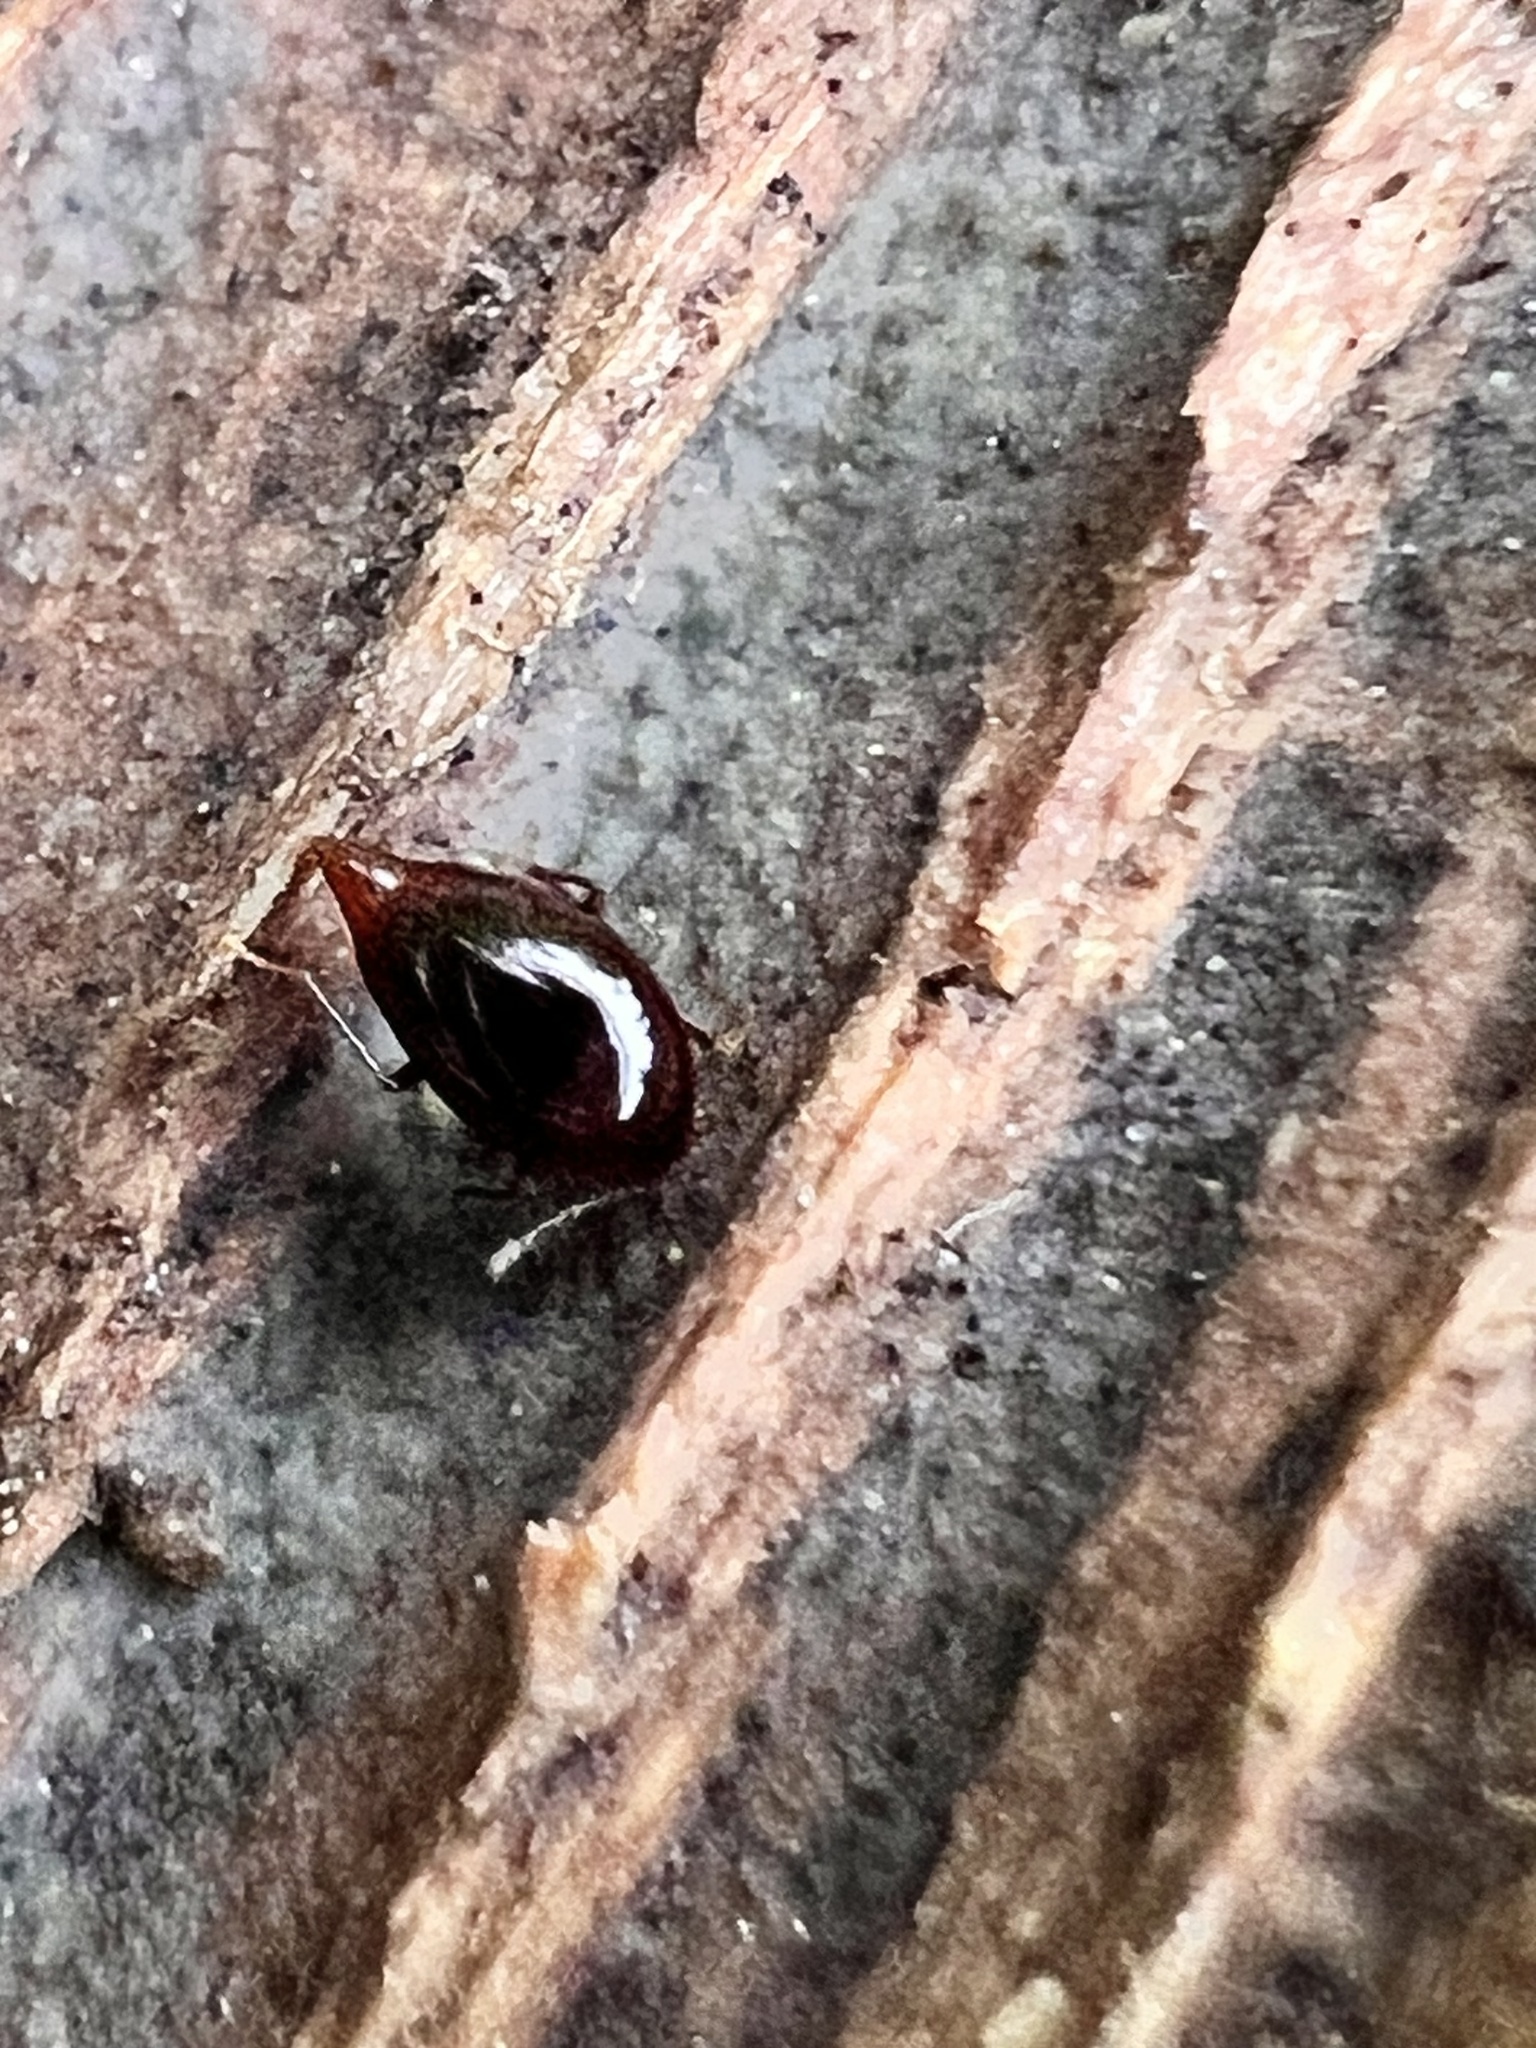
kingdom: Animalia
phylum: Arthropoda
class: Insecta
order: Coleoptera
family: Staphylinidae
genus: Brachynopus
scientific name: Brachynopus scutellaris
